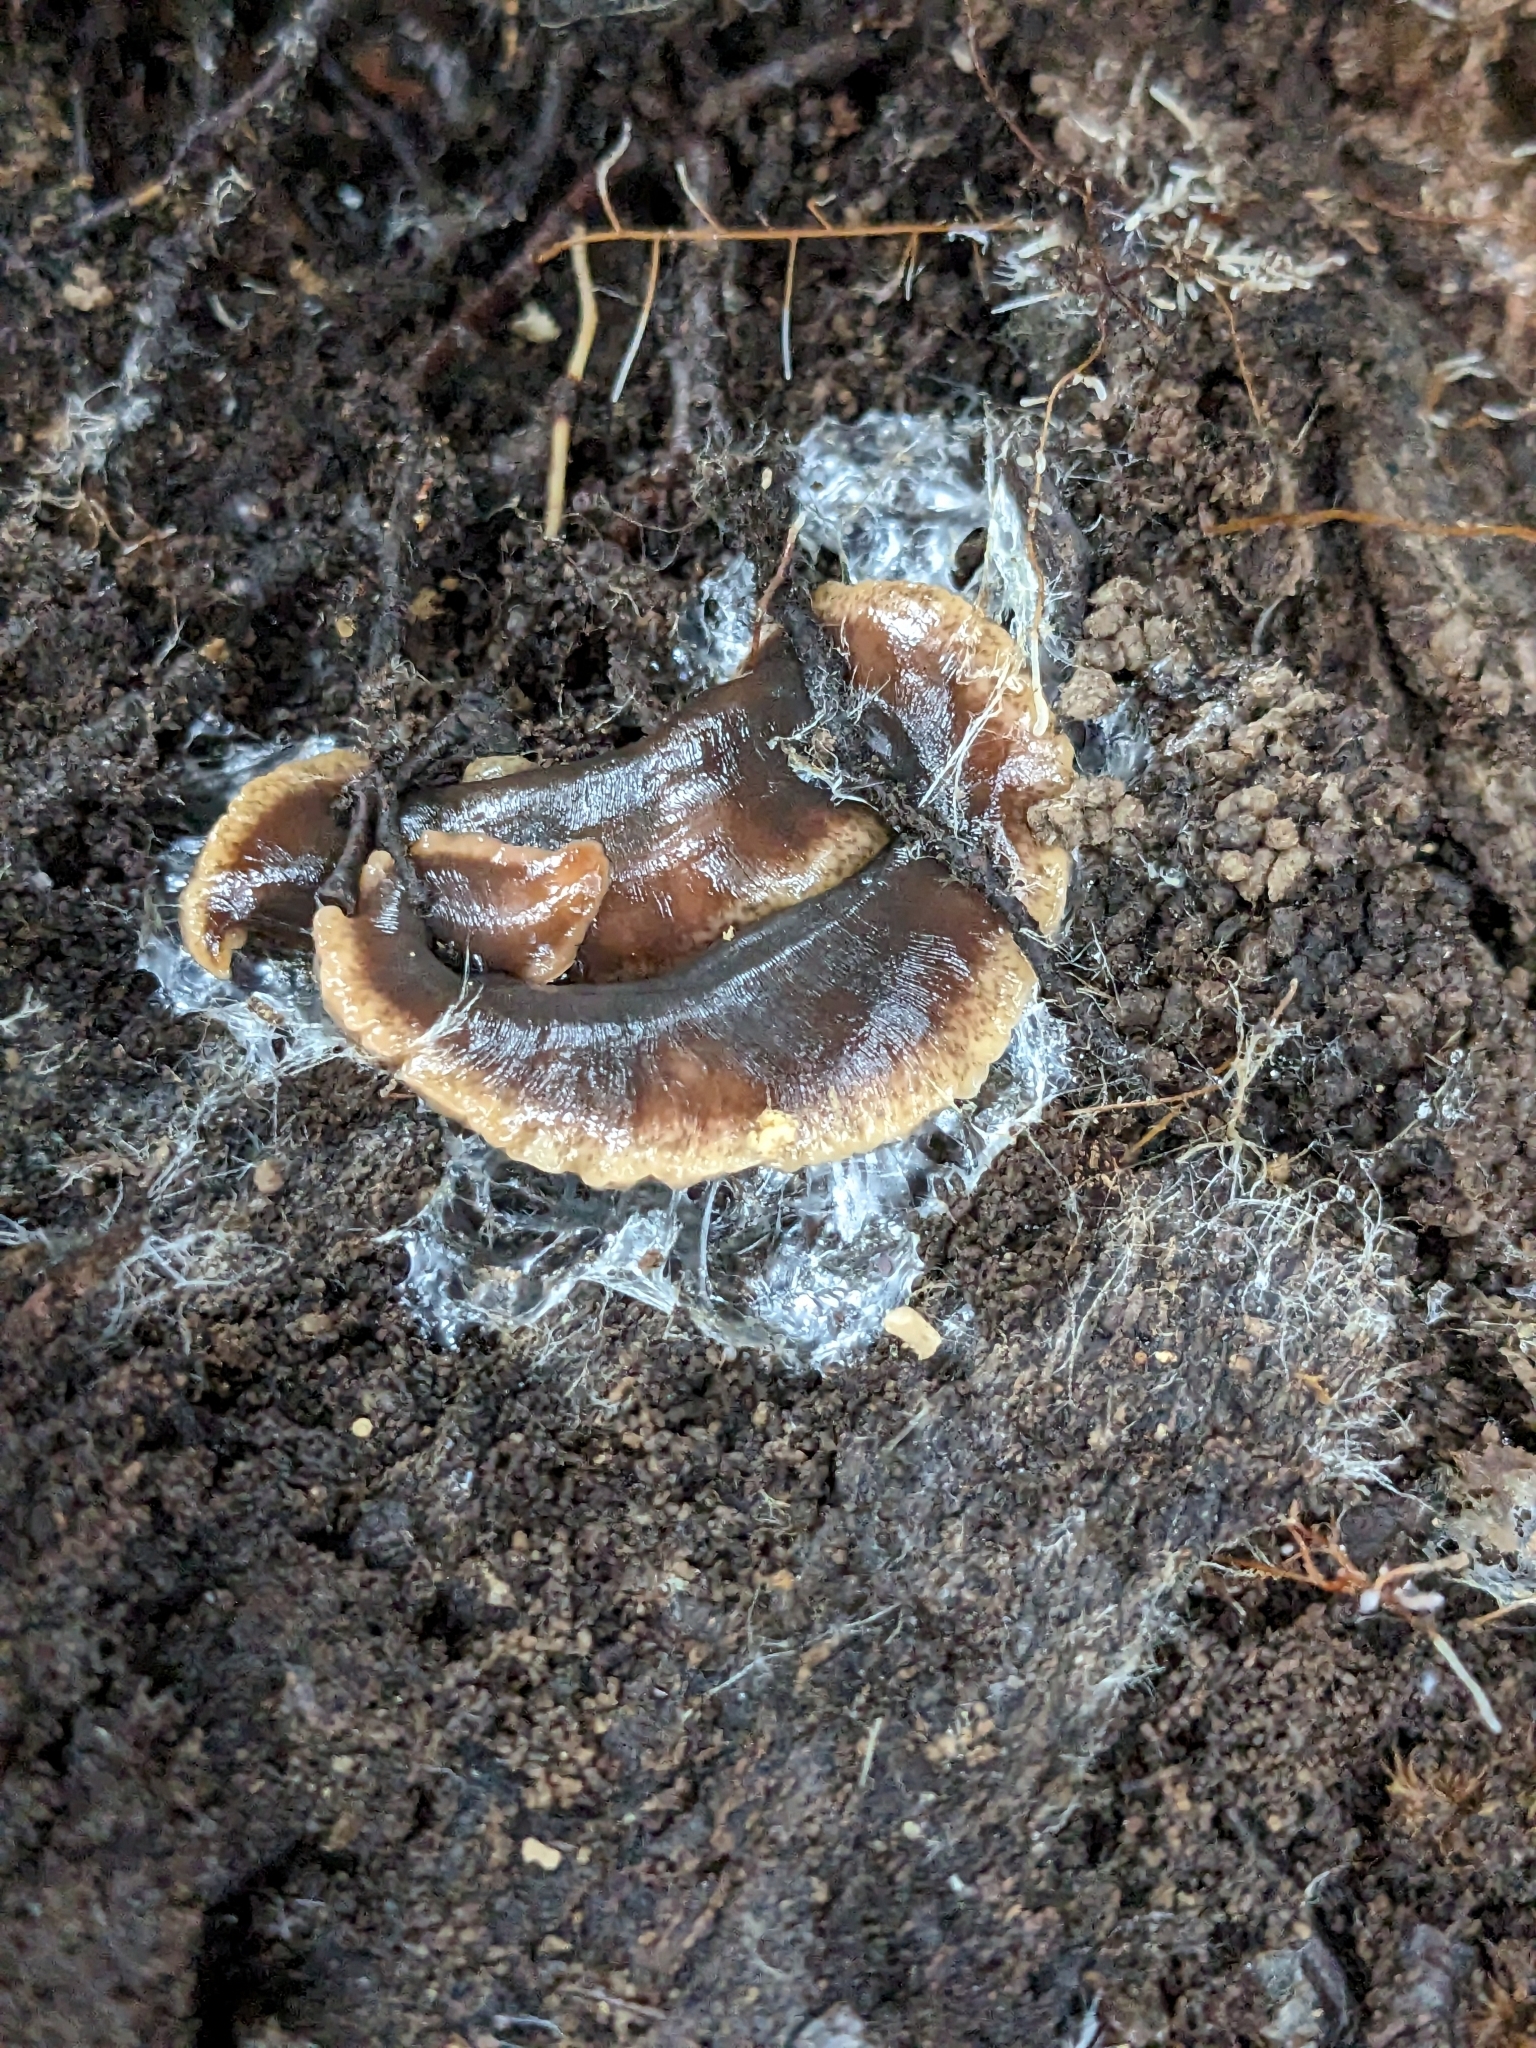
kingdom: Animalia
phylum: Platyhelminthes
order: Tricladida
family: Geoplanidae
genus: Arthurdendyus
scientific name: Arthurdendyus triangulatus
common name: New zealand flatworm
